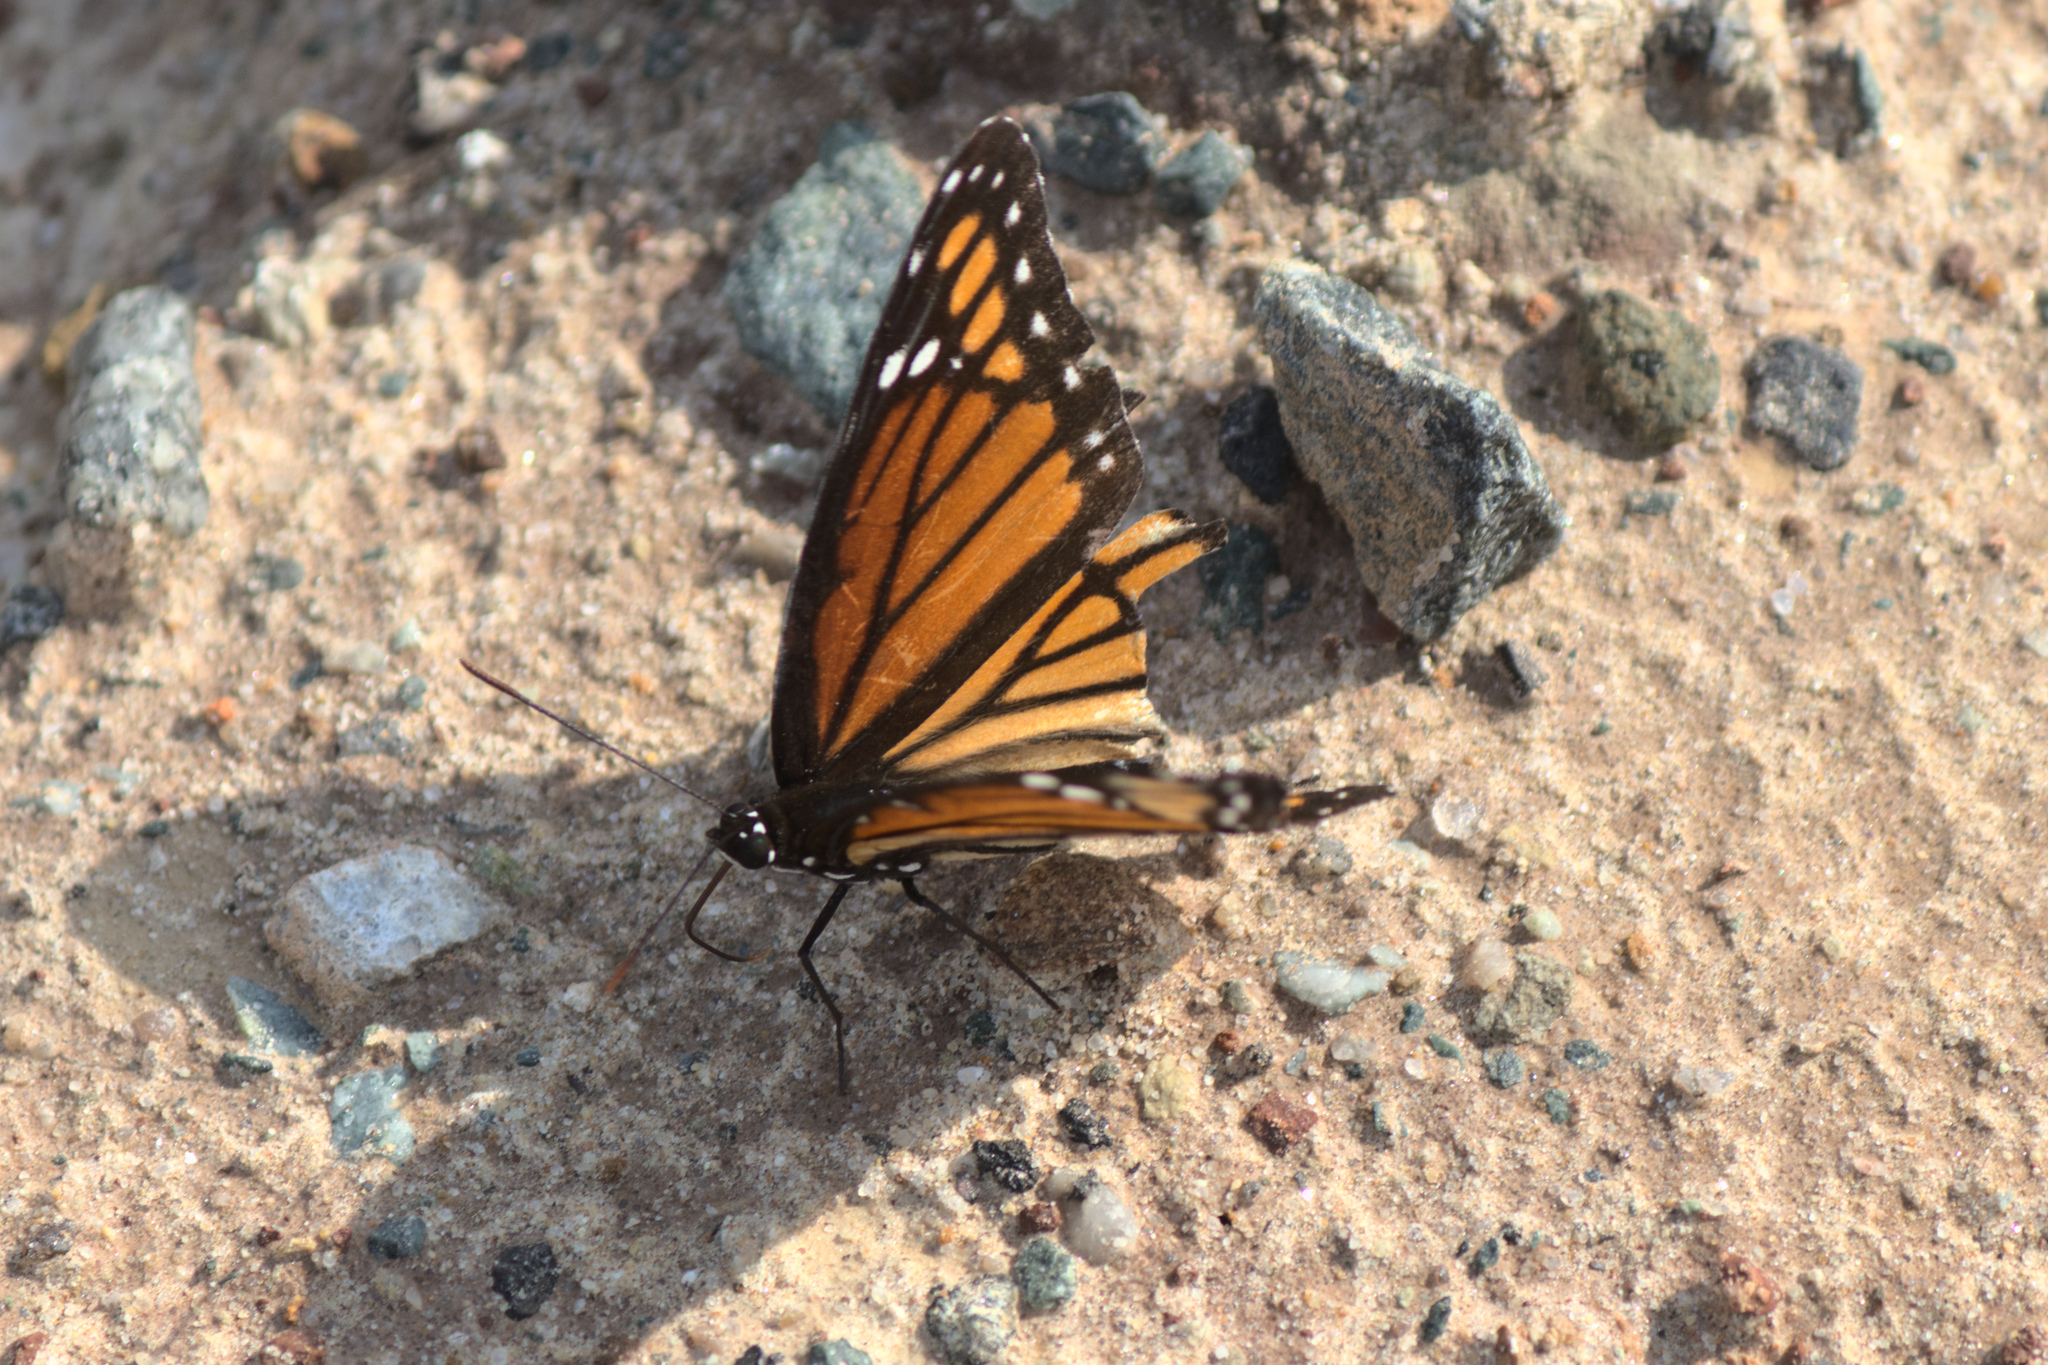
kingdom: Animalia
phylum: Arthropoda
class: Insecta
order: Lepidoptera
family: Nymphalidae
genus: Limenitis
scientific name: Limenitis archippus
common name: Viceroy
